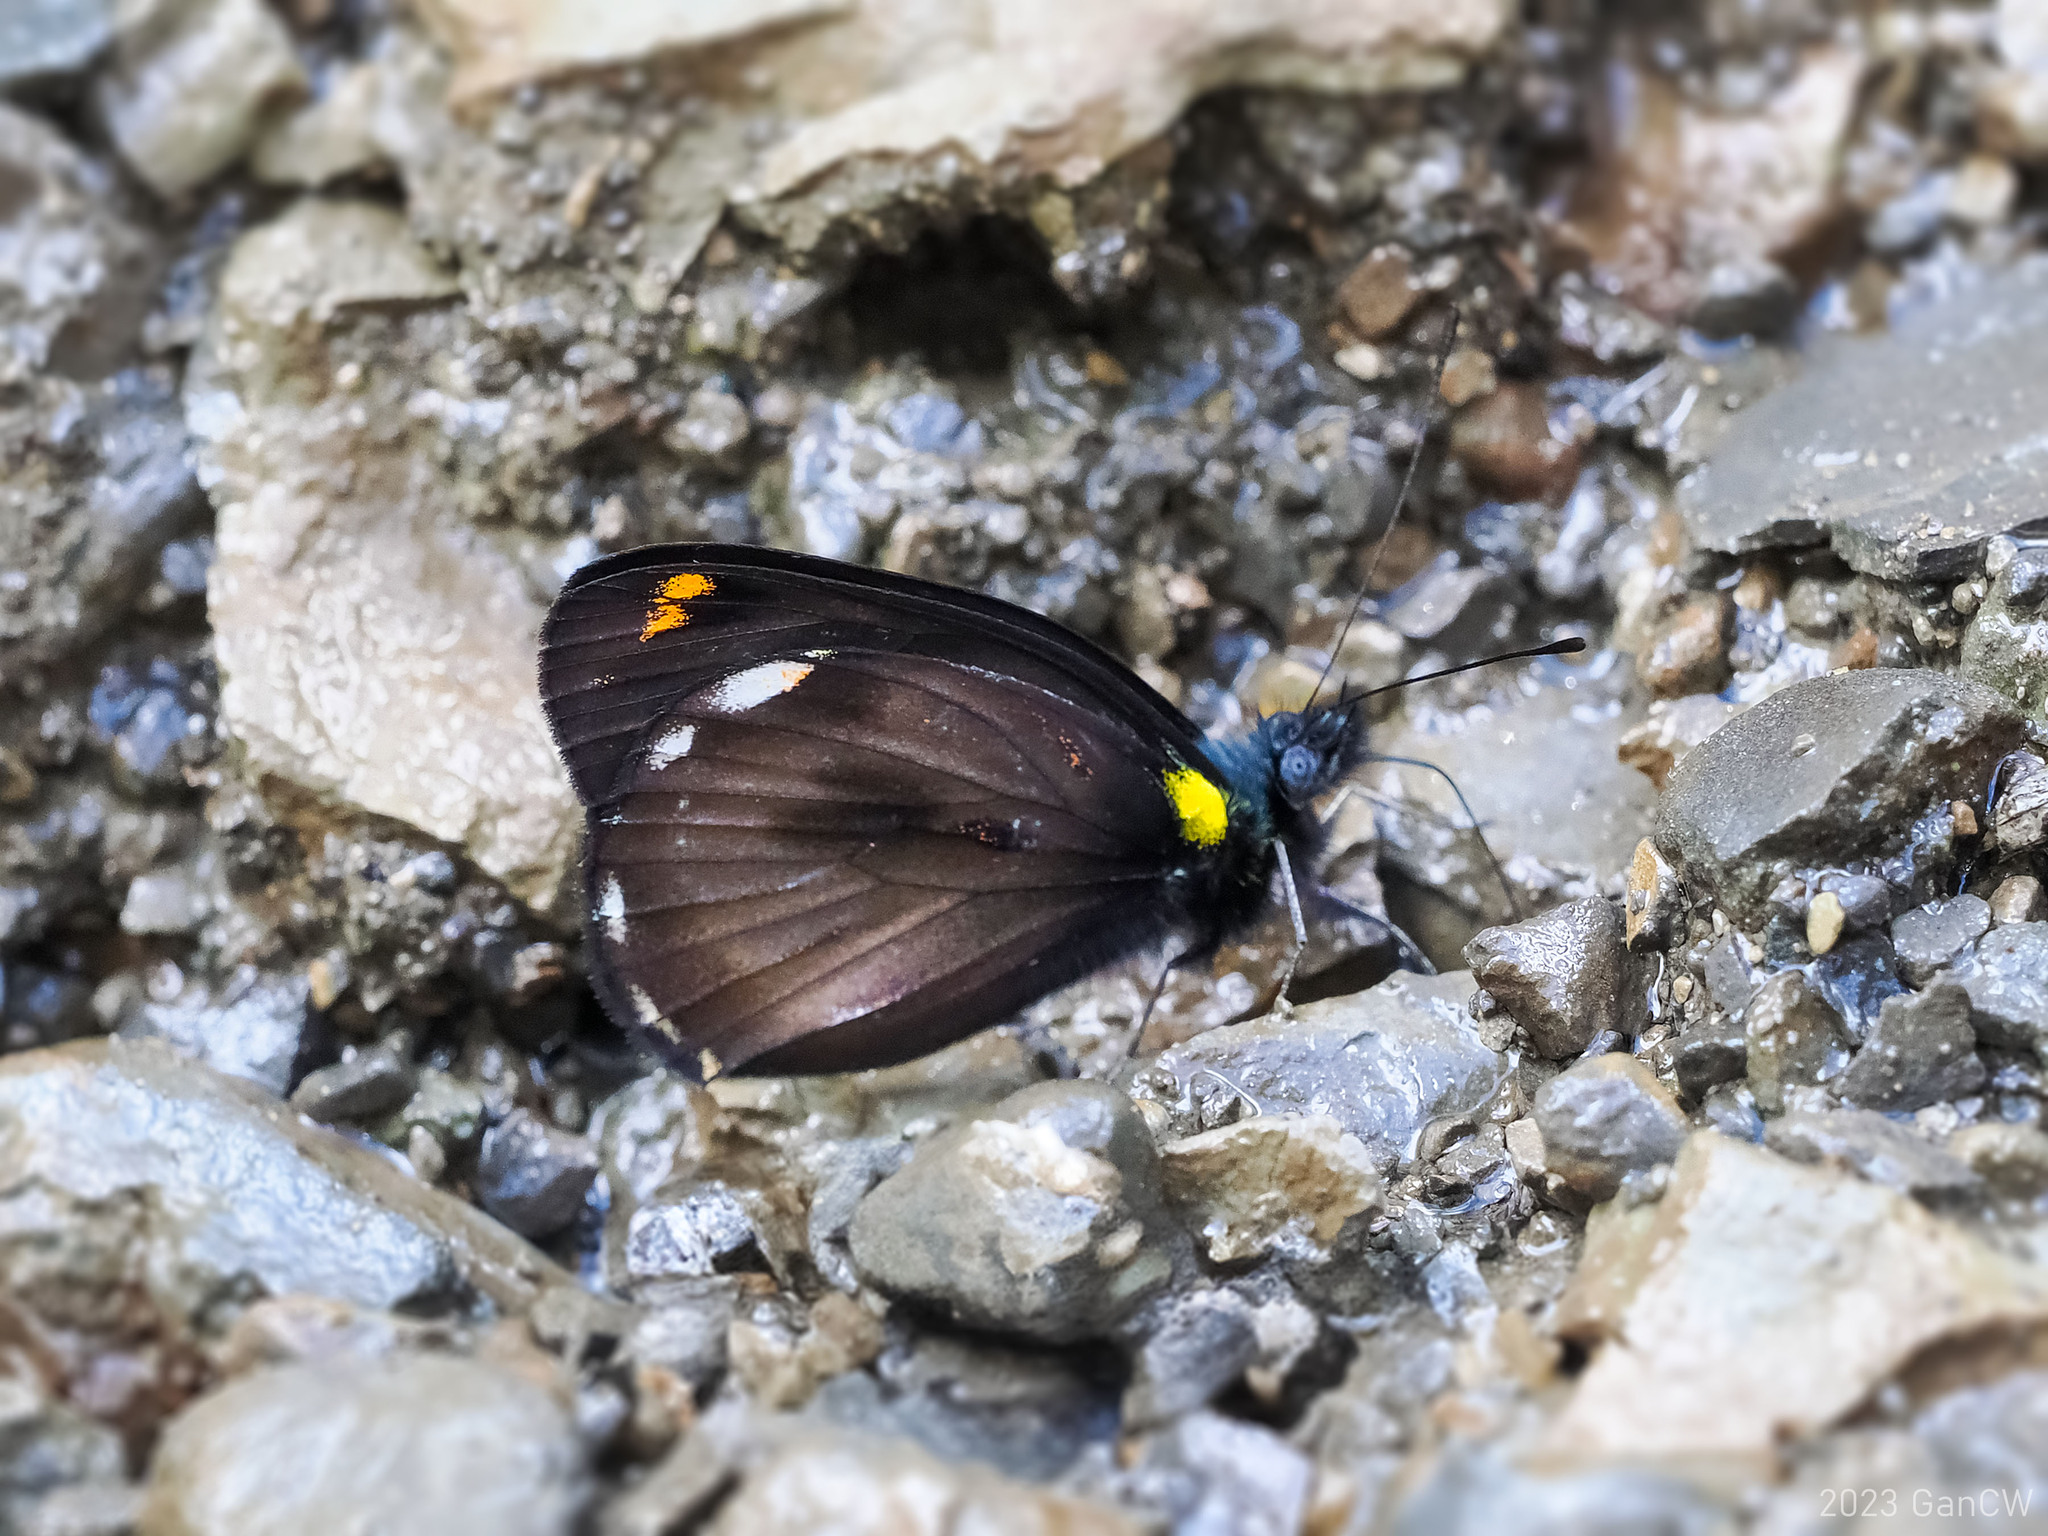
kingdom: Animalia
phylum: Arthropoda
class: Insecta
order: Lepidoptera
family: Pieridae
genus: Delias
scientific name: Delias hypomelas
